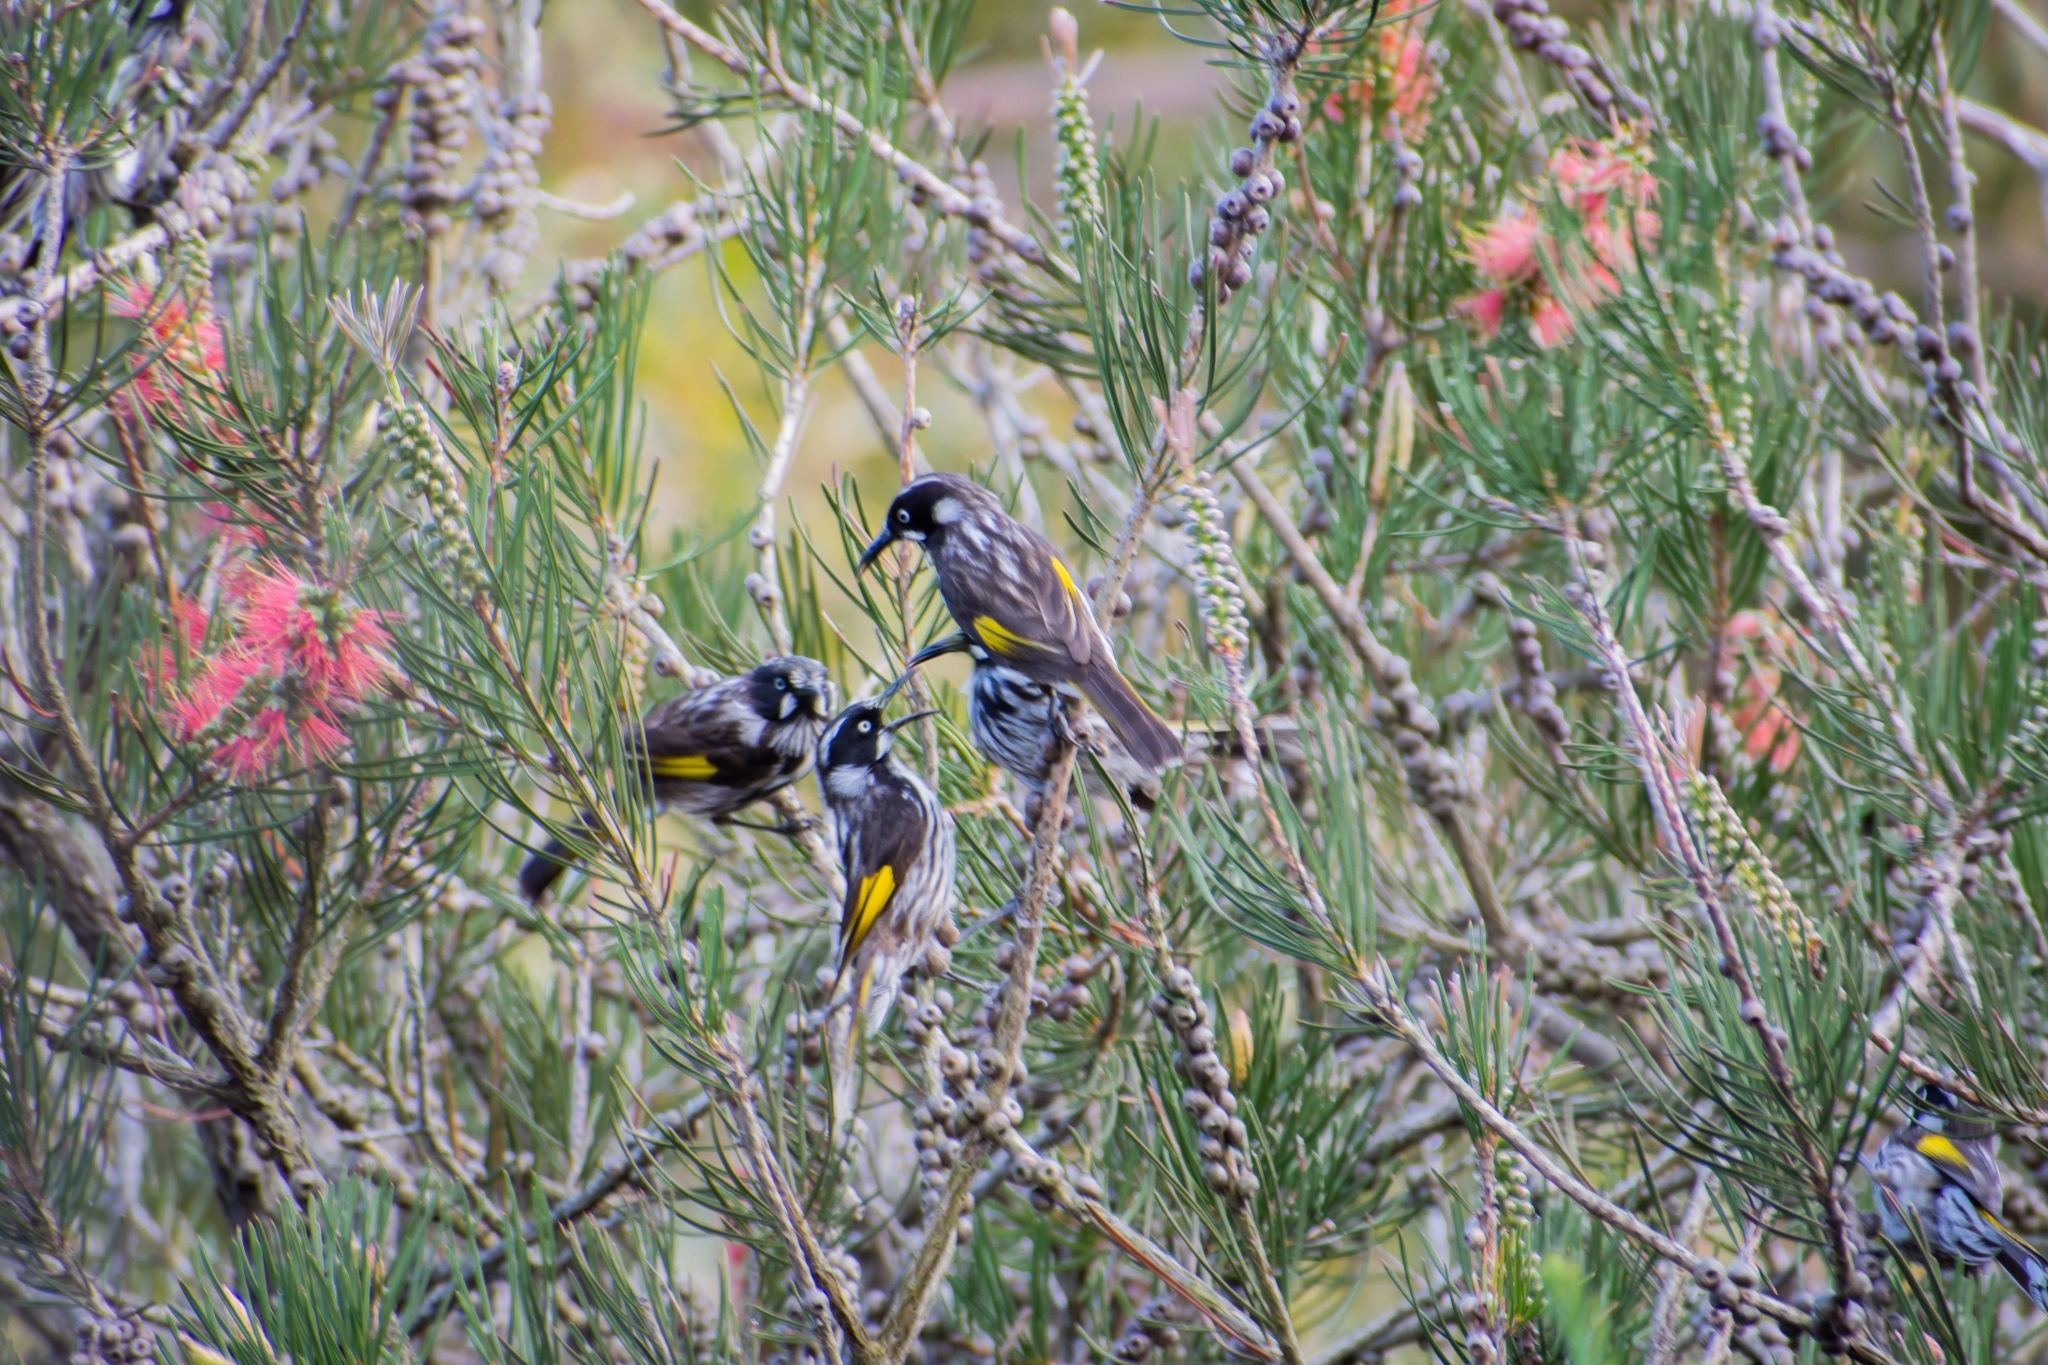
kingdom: Animalia
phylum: Chordata
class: Aves
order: Passeriformes
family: Meliphagidae
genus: Phylidonyris
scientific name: Phylidonyris novaehollandiae
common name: New holland honeyeater
